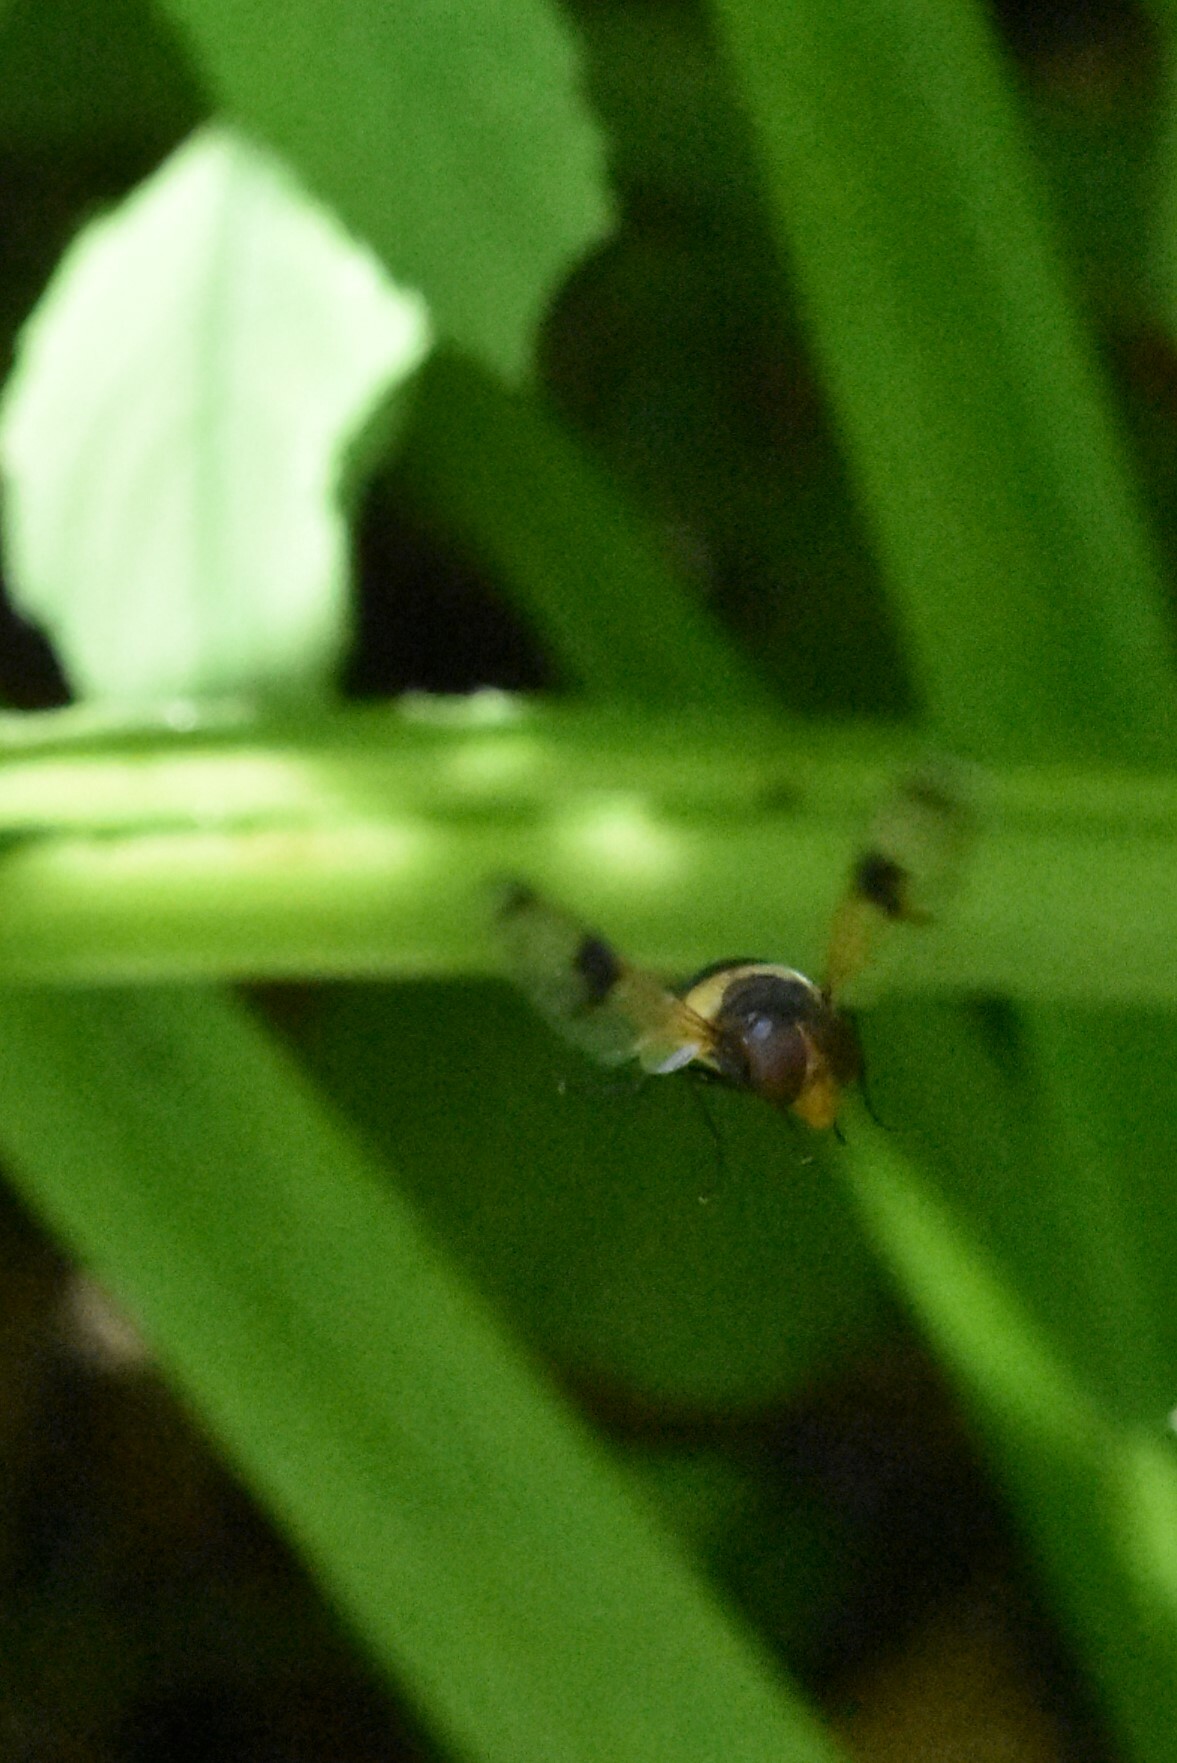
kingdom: Animalia
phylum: Arthropoda
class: Insecta
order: Diptera
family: Syrphidae
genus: Volucella
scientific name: Volucella pellucens
